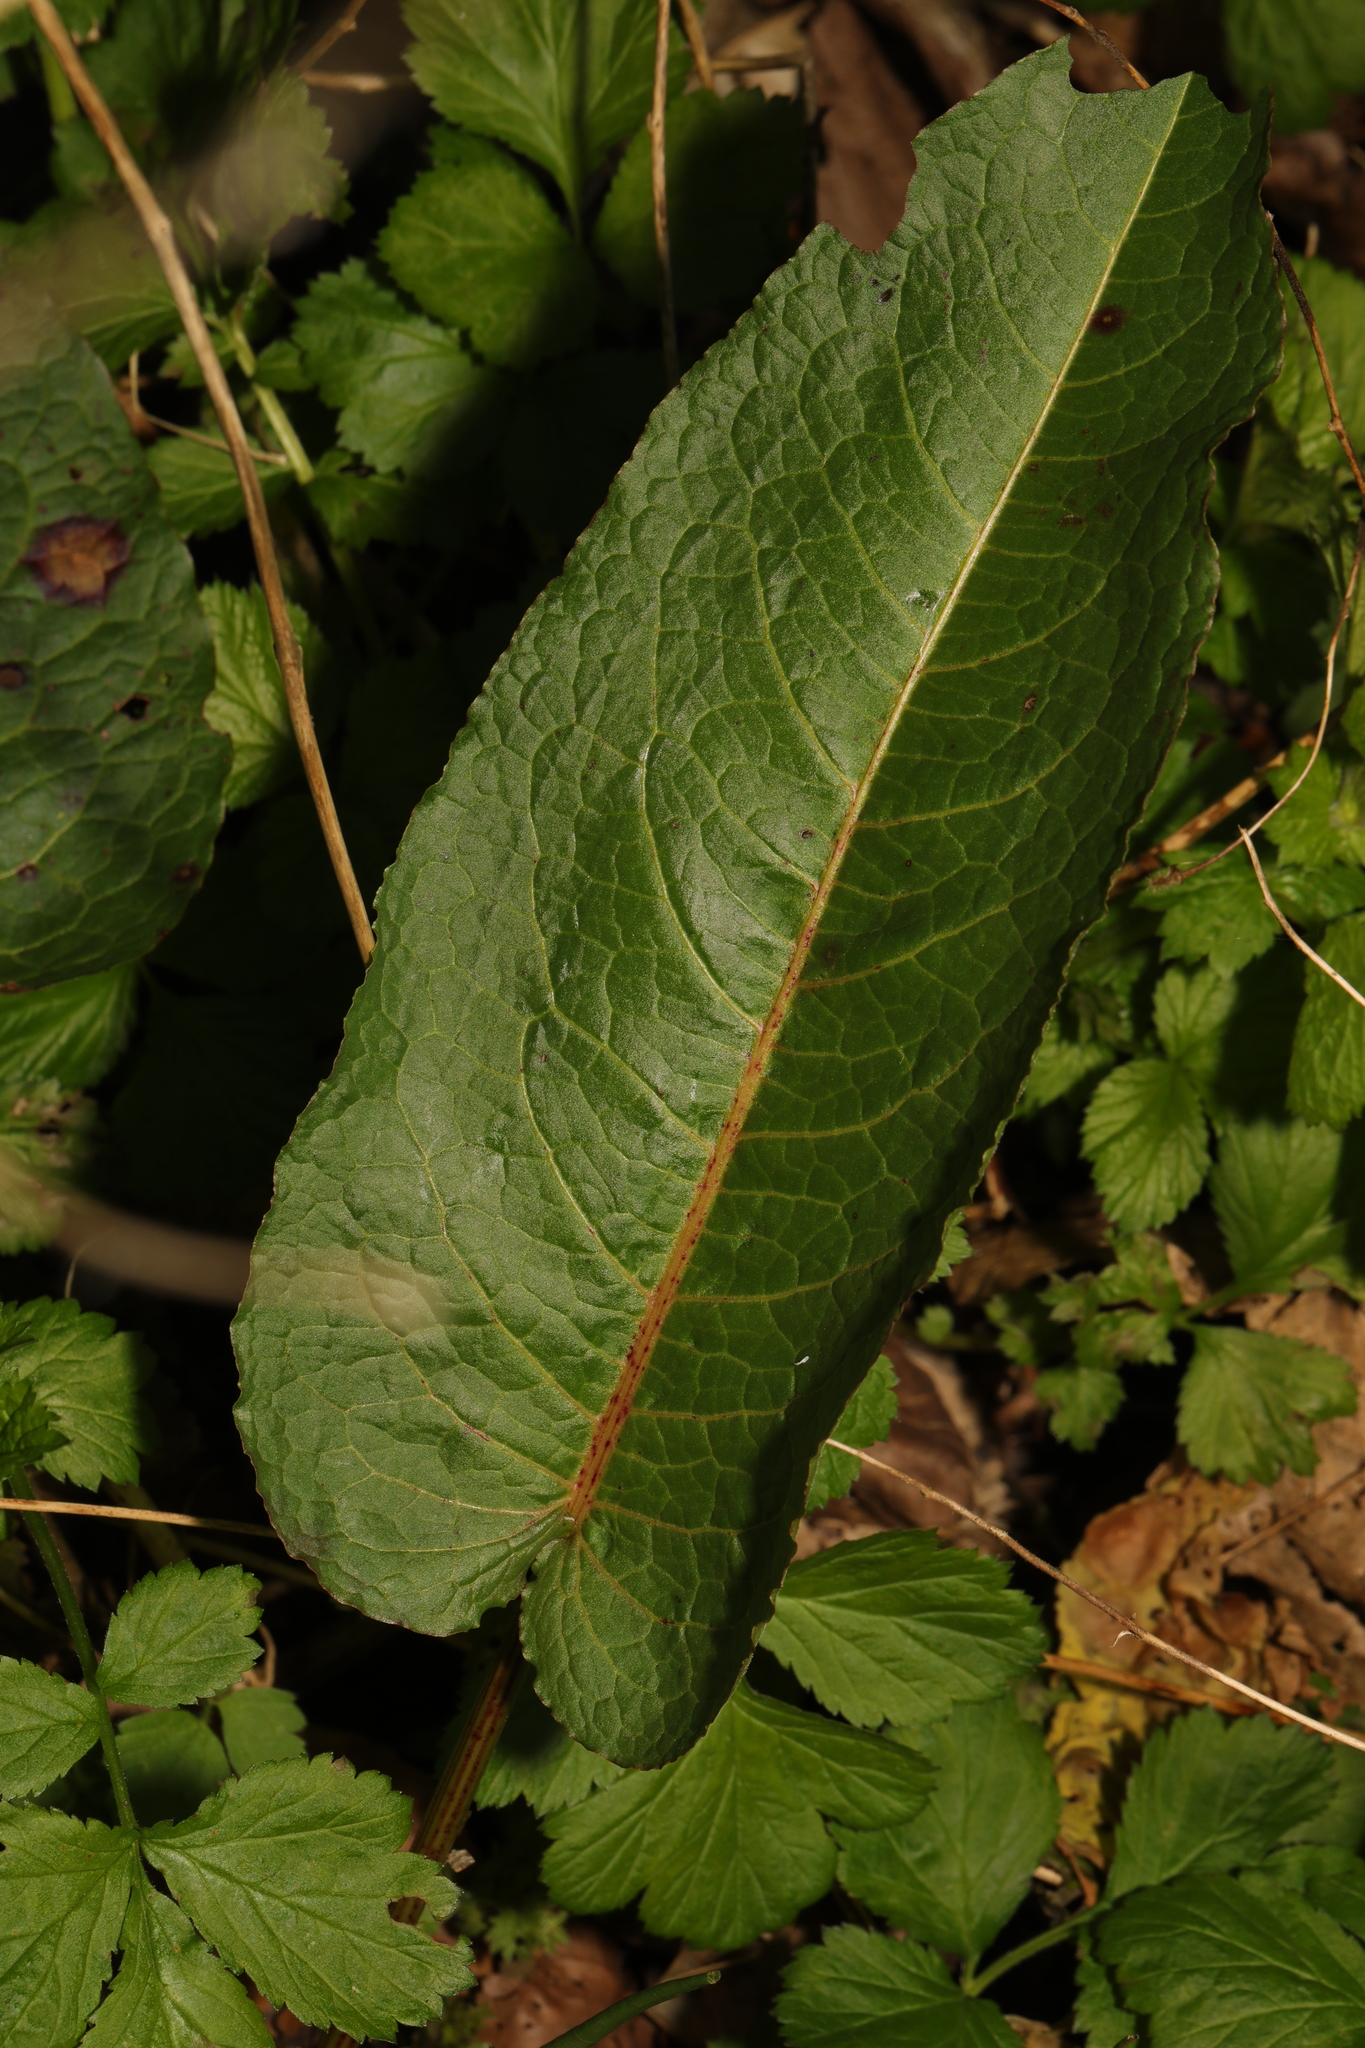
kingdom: Plantae
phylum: Tracheophyta
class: Magnoliopsida
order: Caryophyllales
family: Polygonaceae
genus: Rumex
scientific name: Rumex obtusifolius
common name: Bitter dock
